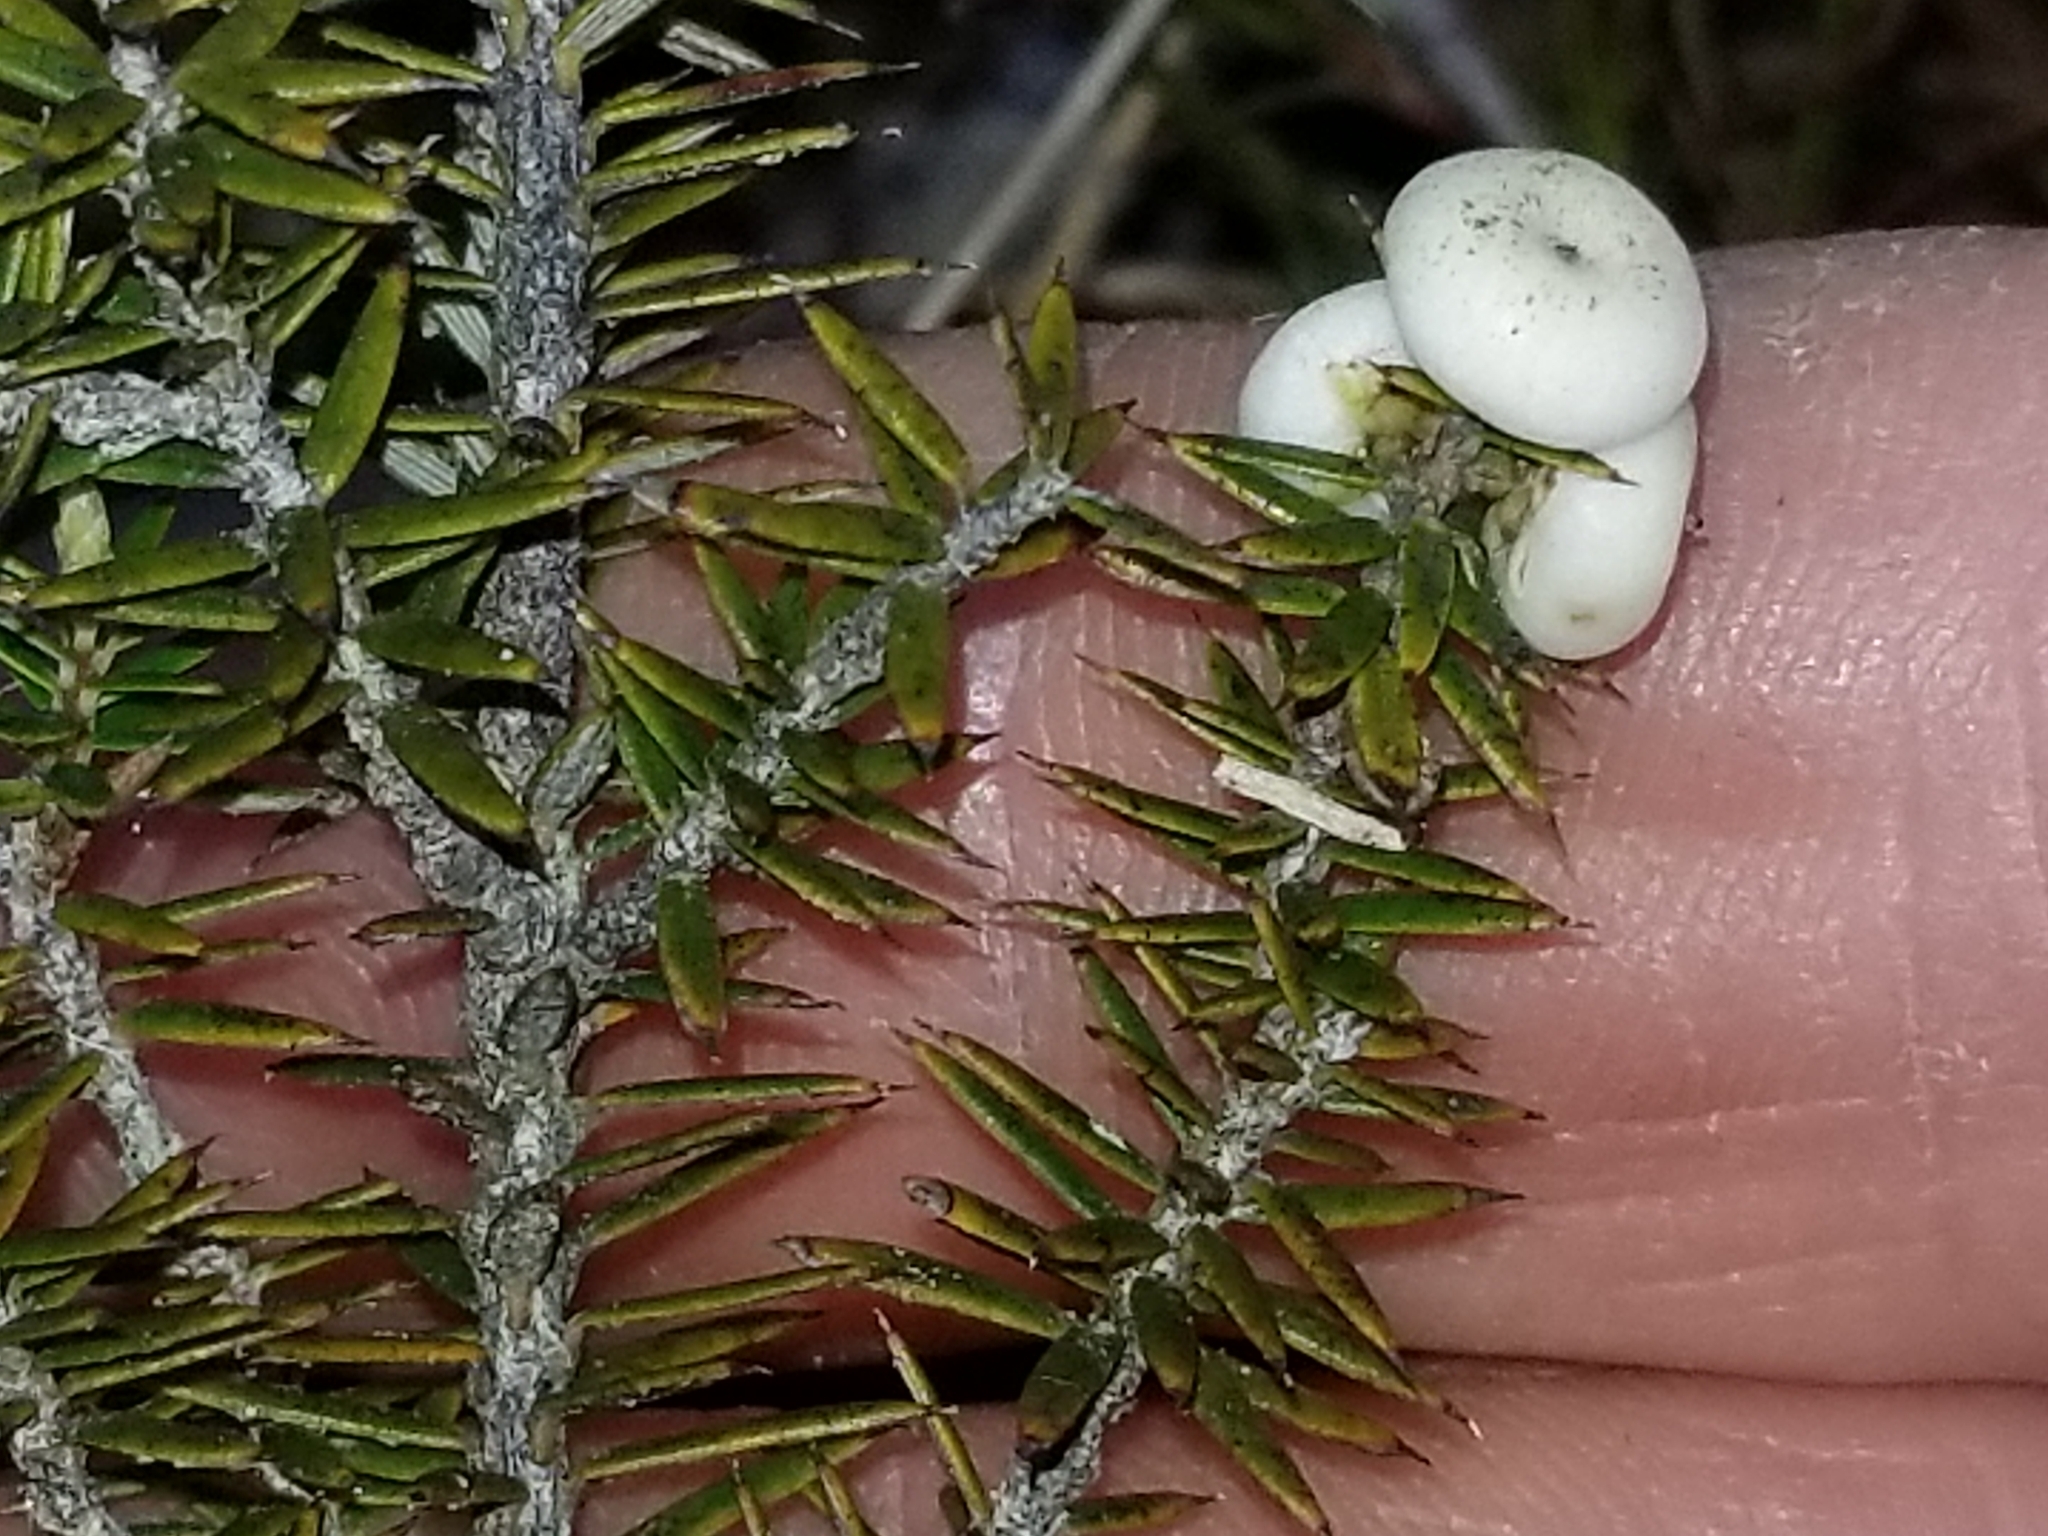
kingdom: Plantae
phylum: Tracheophyta
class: Magnoliopsida
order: Ericales
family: Ericaceae
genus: Leptecophylla
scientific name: Leptecophylla juniperina
